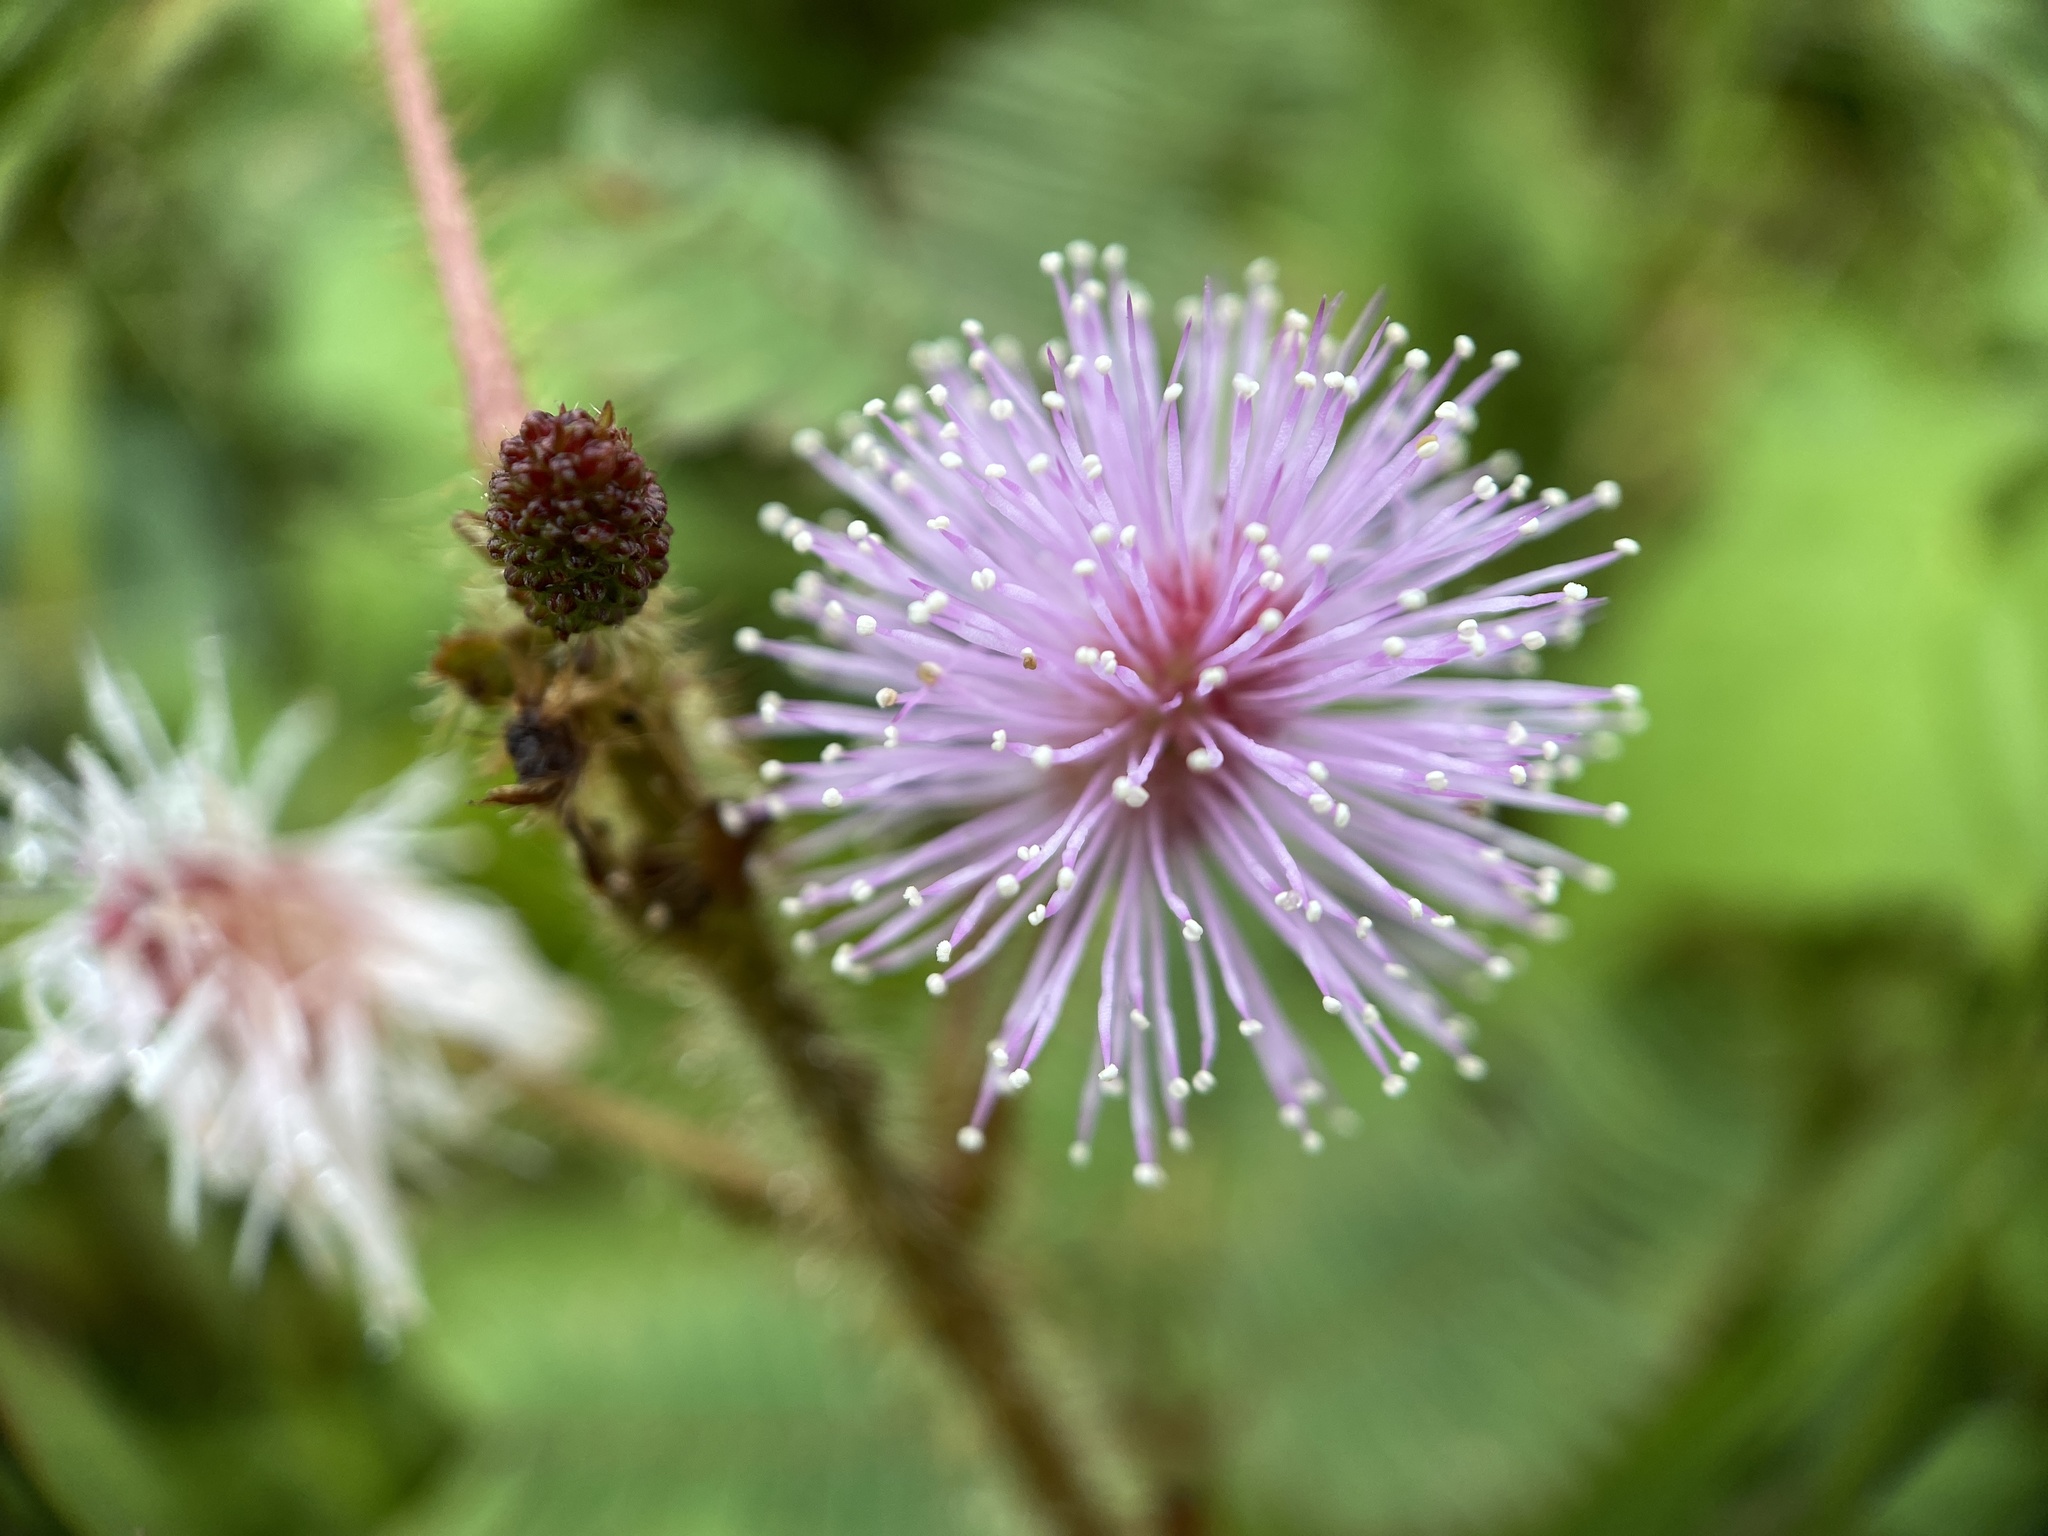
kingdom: Plantae
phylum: Tracheophyta
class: Magnoliopsida
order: Fabales
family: Fabaceae
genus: Mimosa
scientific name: Mimosa pudica
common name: Sensitive plant
